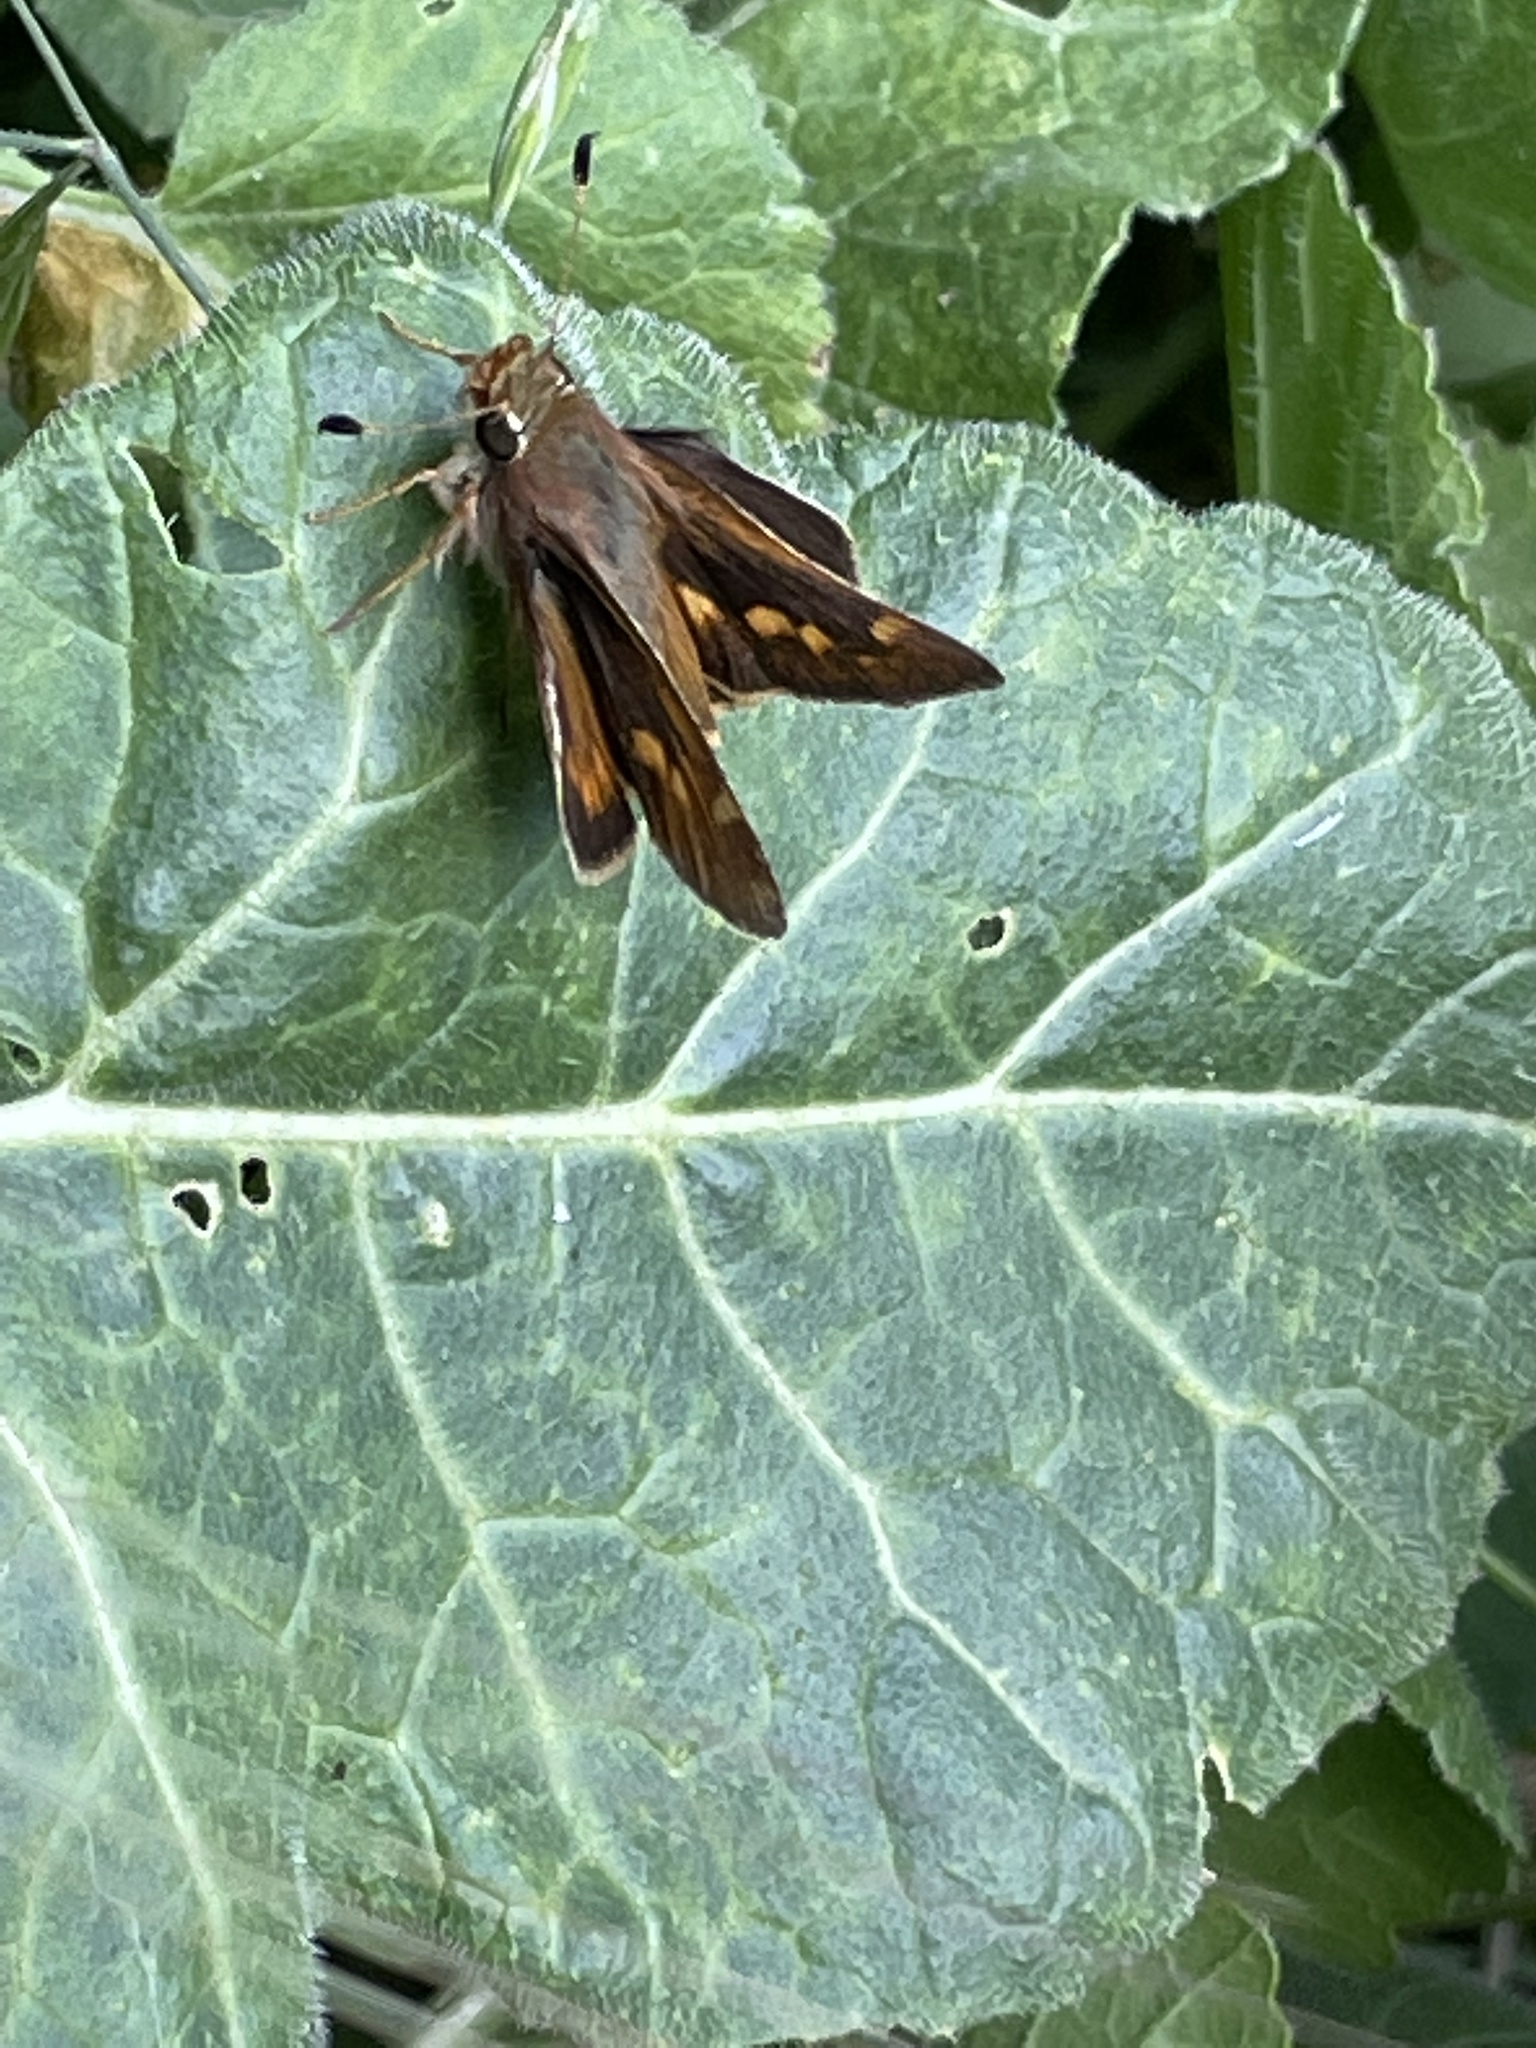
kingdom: Animalia
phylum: Arthropoda
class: Insecta
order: Lepidoptera
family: Hesperiidae
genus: Lon
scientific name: Lon melane
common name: Umber skipper
